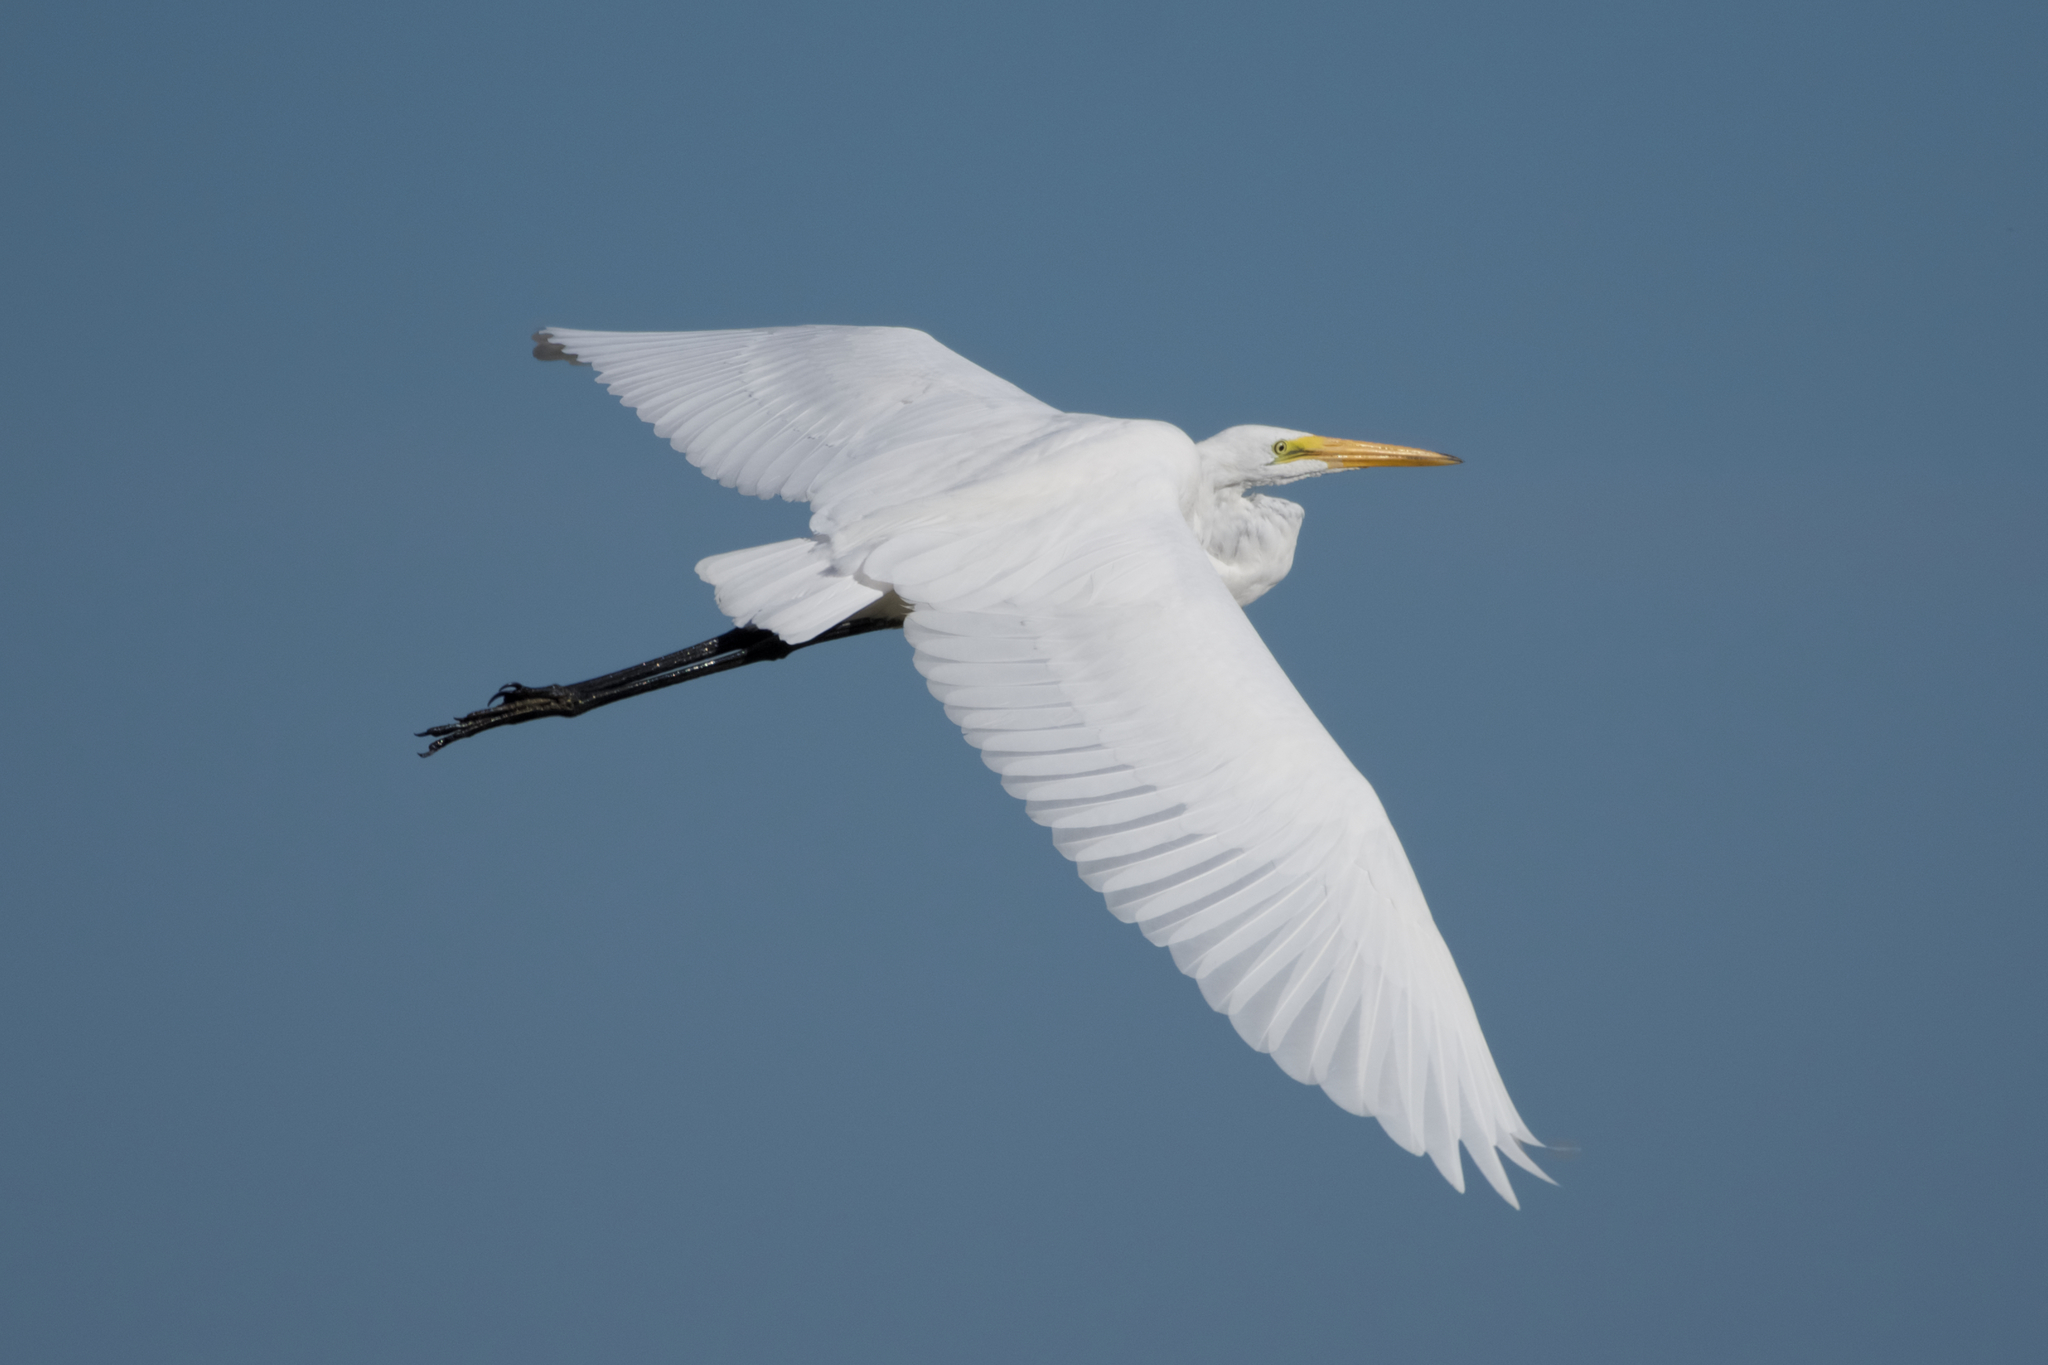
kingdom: Animalia
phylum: Chordata
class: Aves
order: Pelecaniformes
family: Ardeidae
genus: Ardea
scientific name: Ardea alba
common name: Great egret
